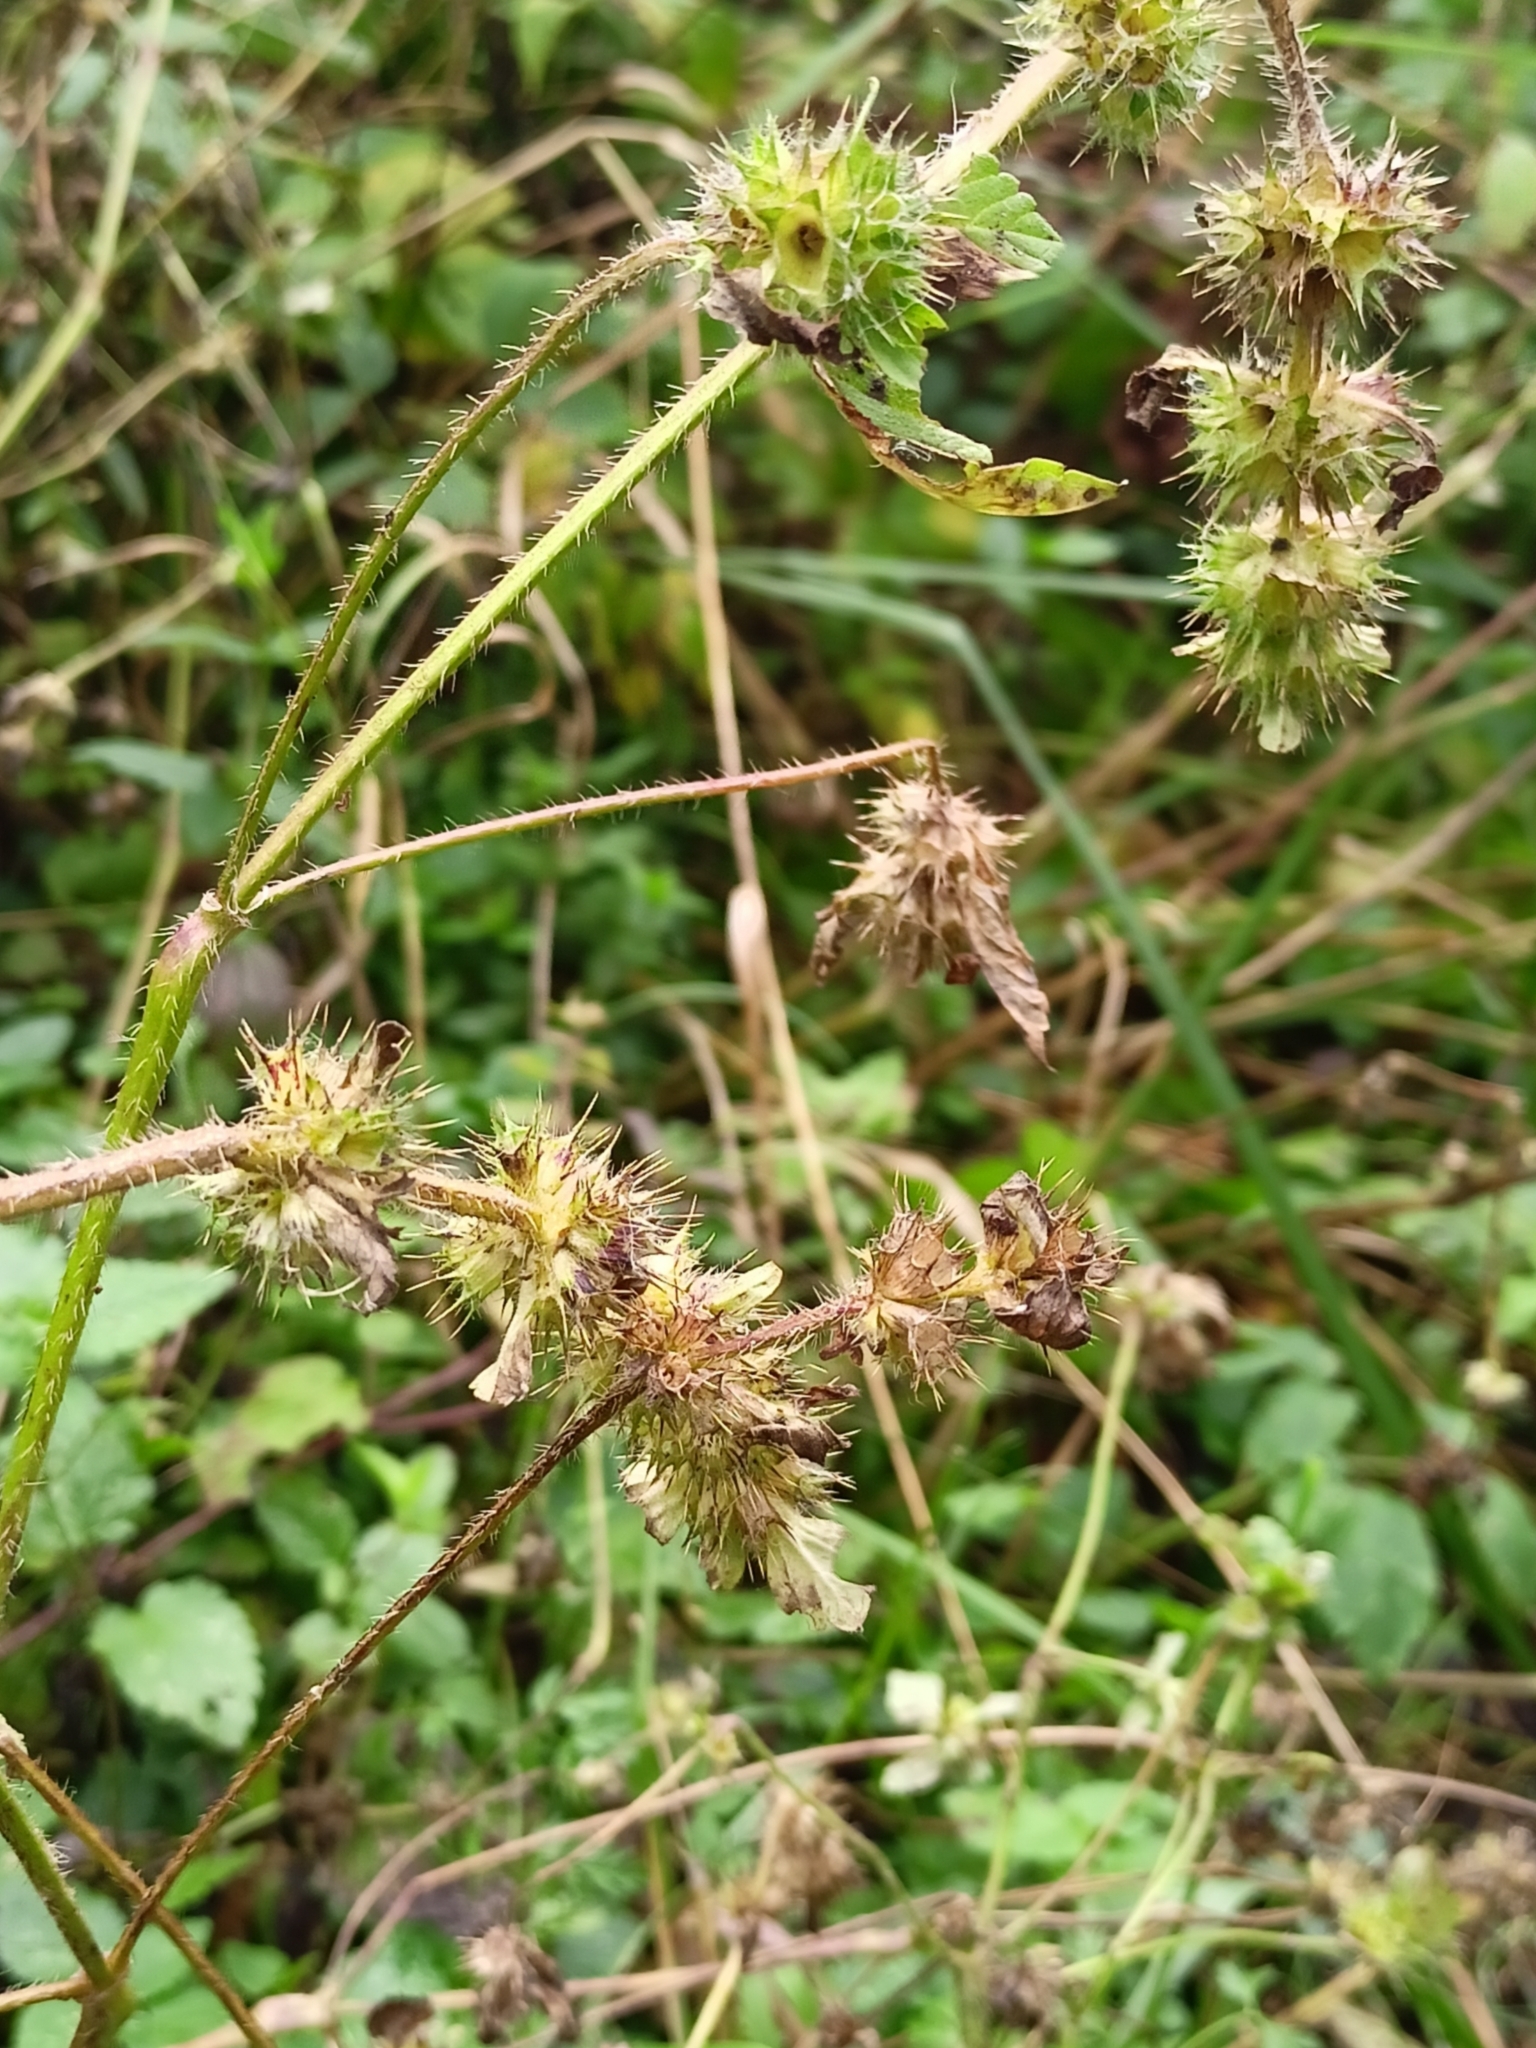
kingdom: Plantae
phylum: Tracheophyta
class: Magnoliopsida
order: Lamiales
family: Lamiaceae
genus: Galeopsis
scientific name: Galeopsis bifida
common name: Bifid hemp-nettle
